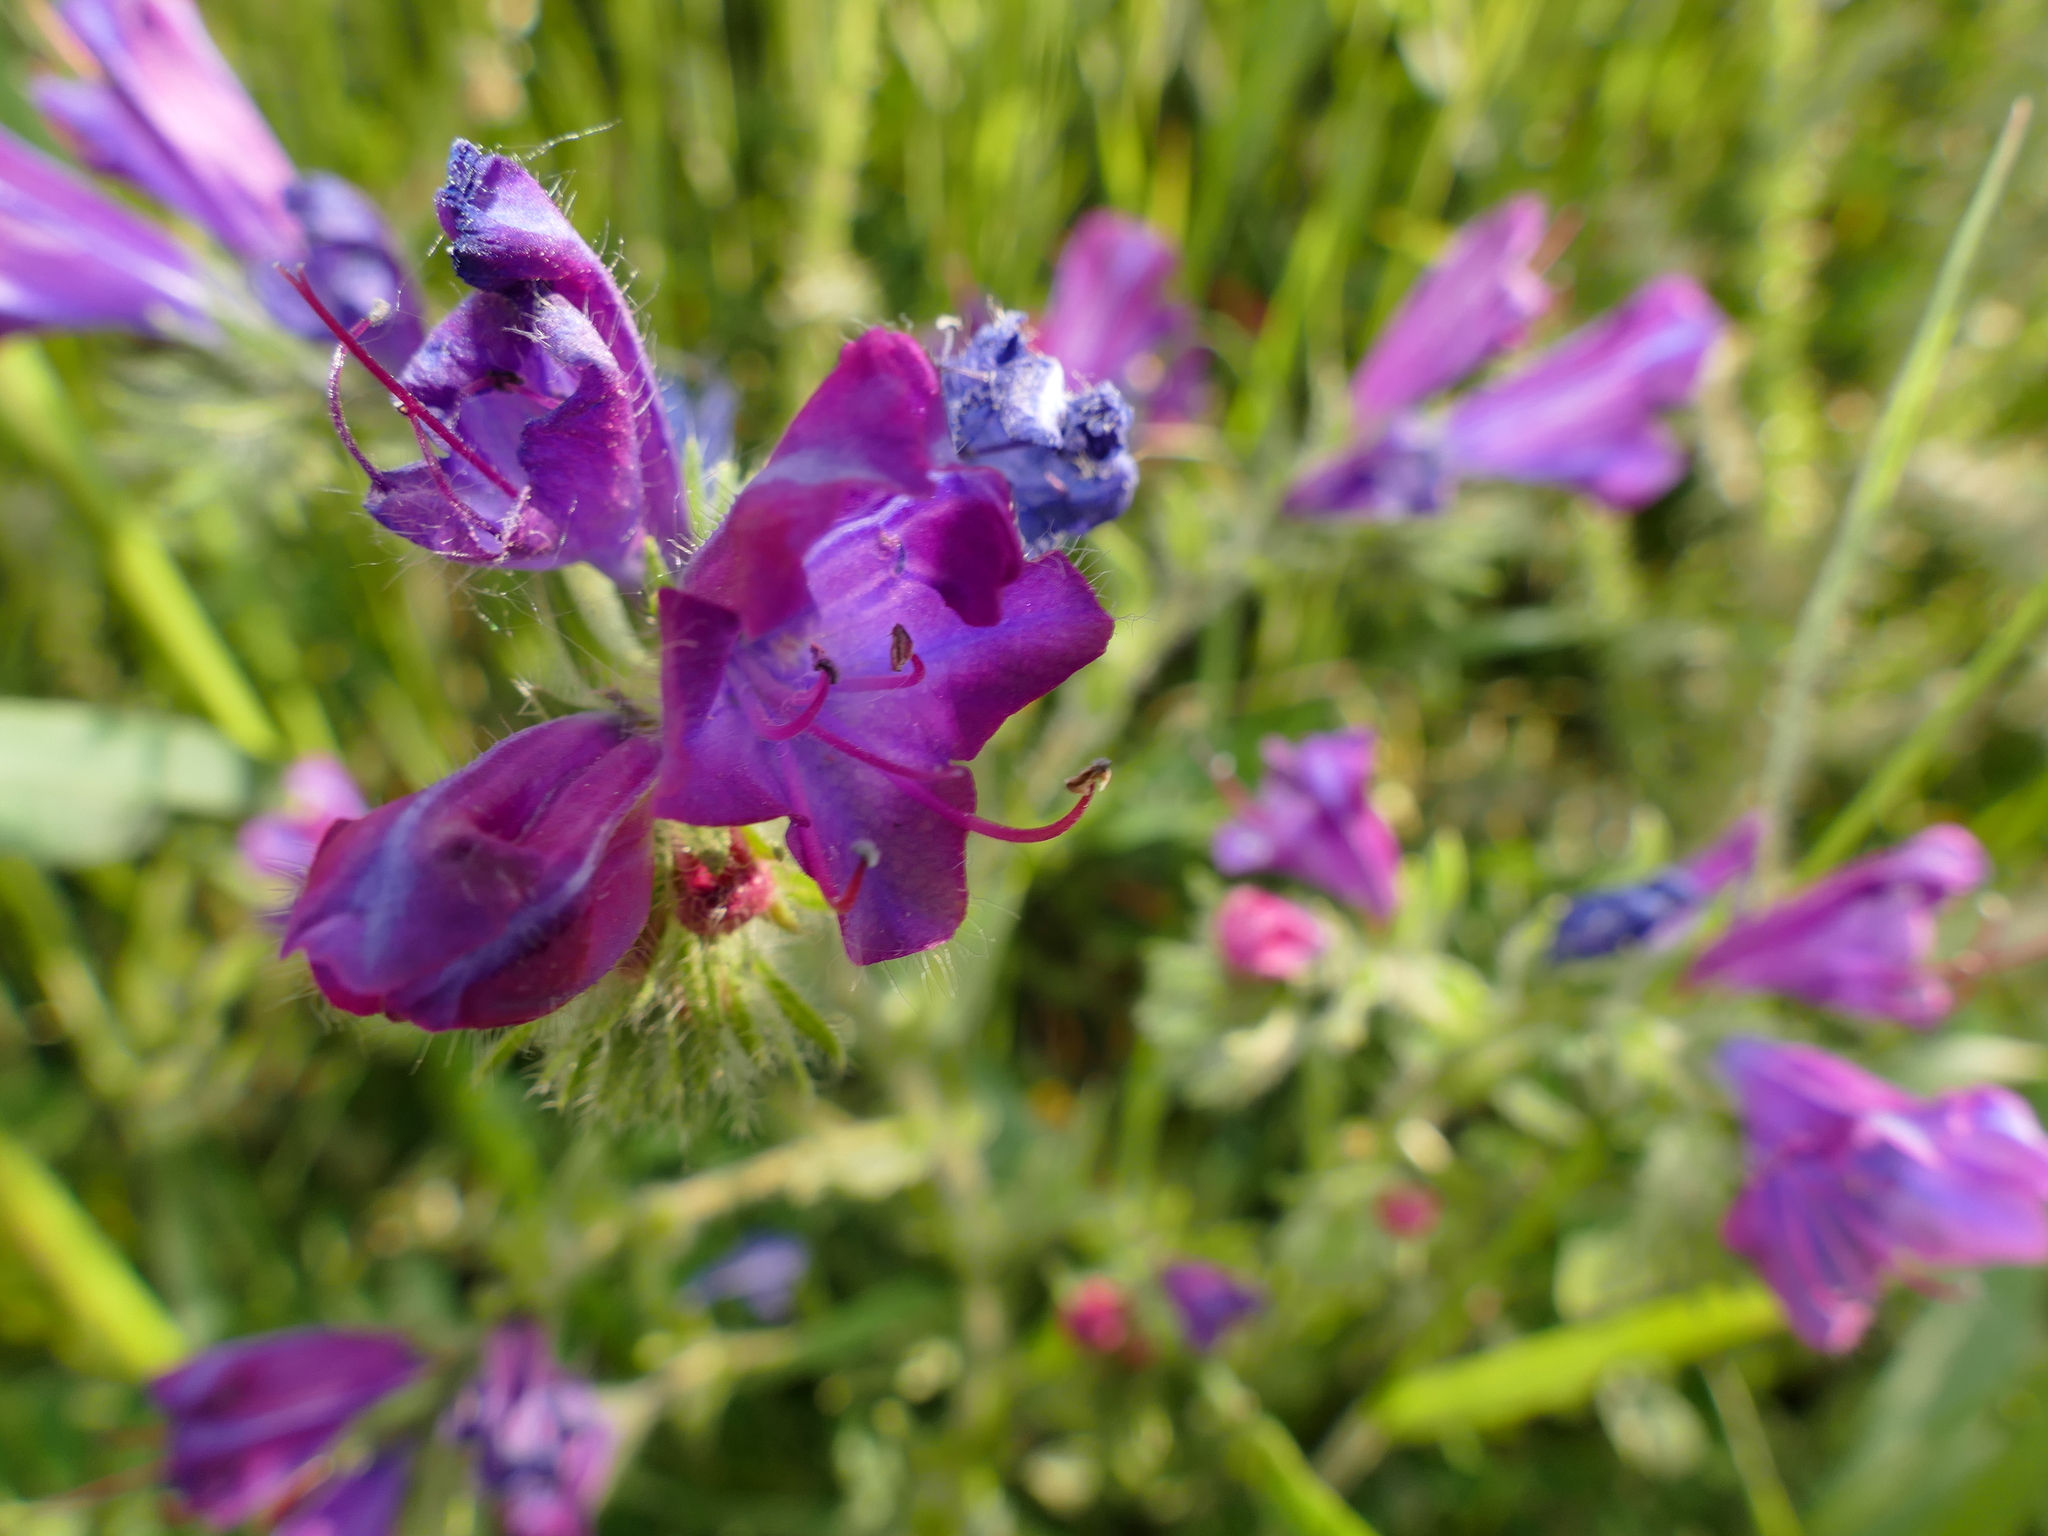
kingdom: Plantae
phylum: Tracheophyta
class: Magnoliopsida
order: Boraginales
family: Boraginaceae
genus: Echium
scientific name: Echium plantagineum
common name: Purple viper's-bugloss
